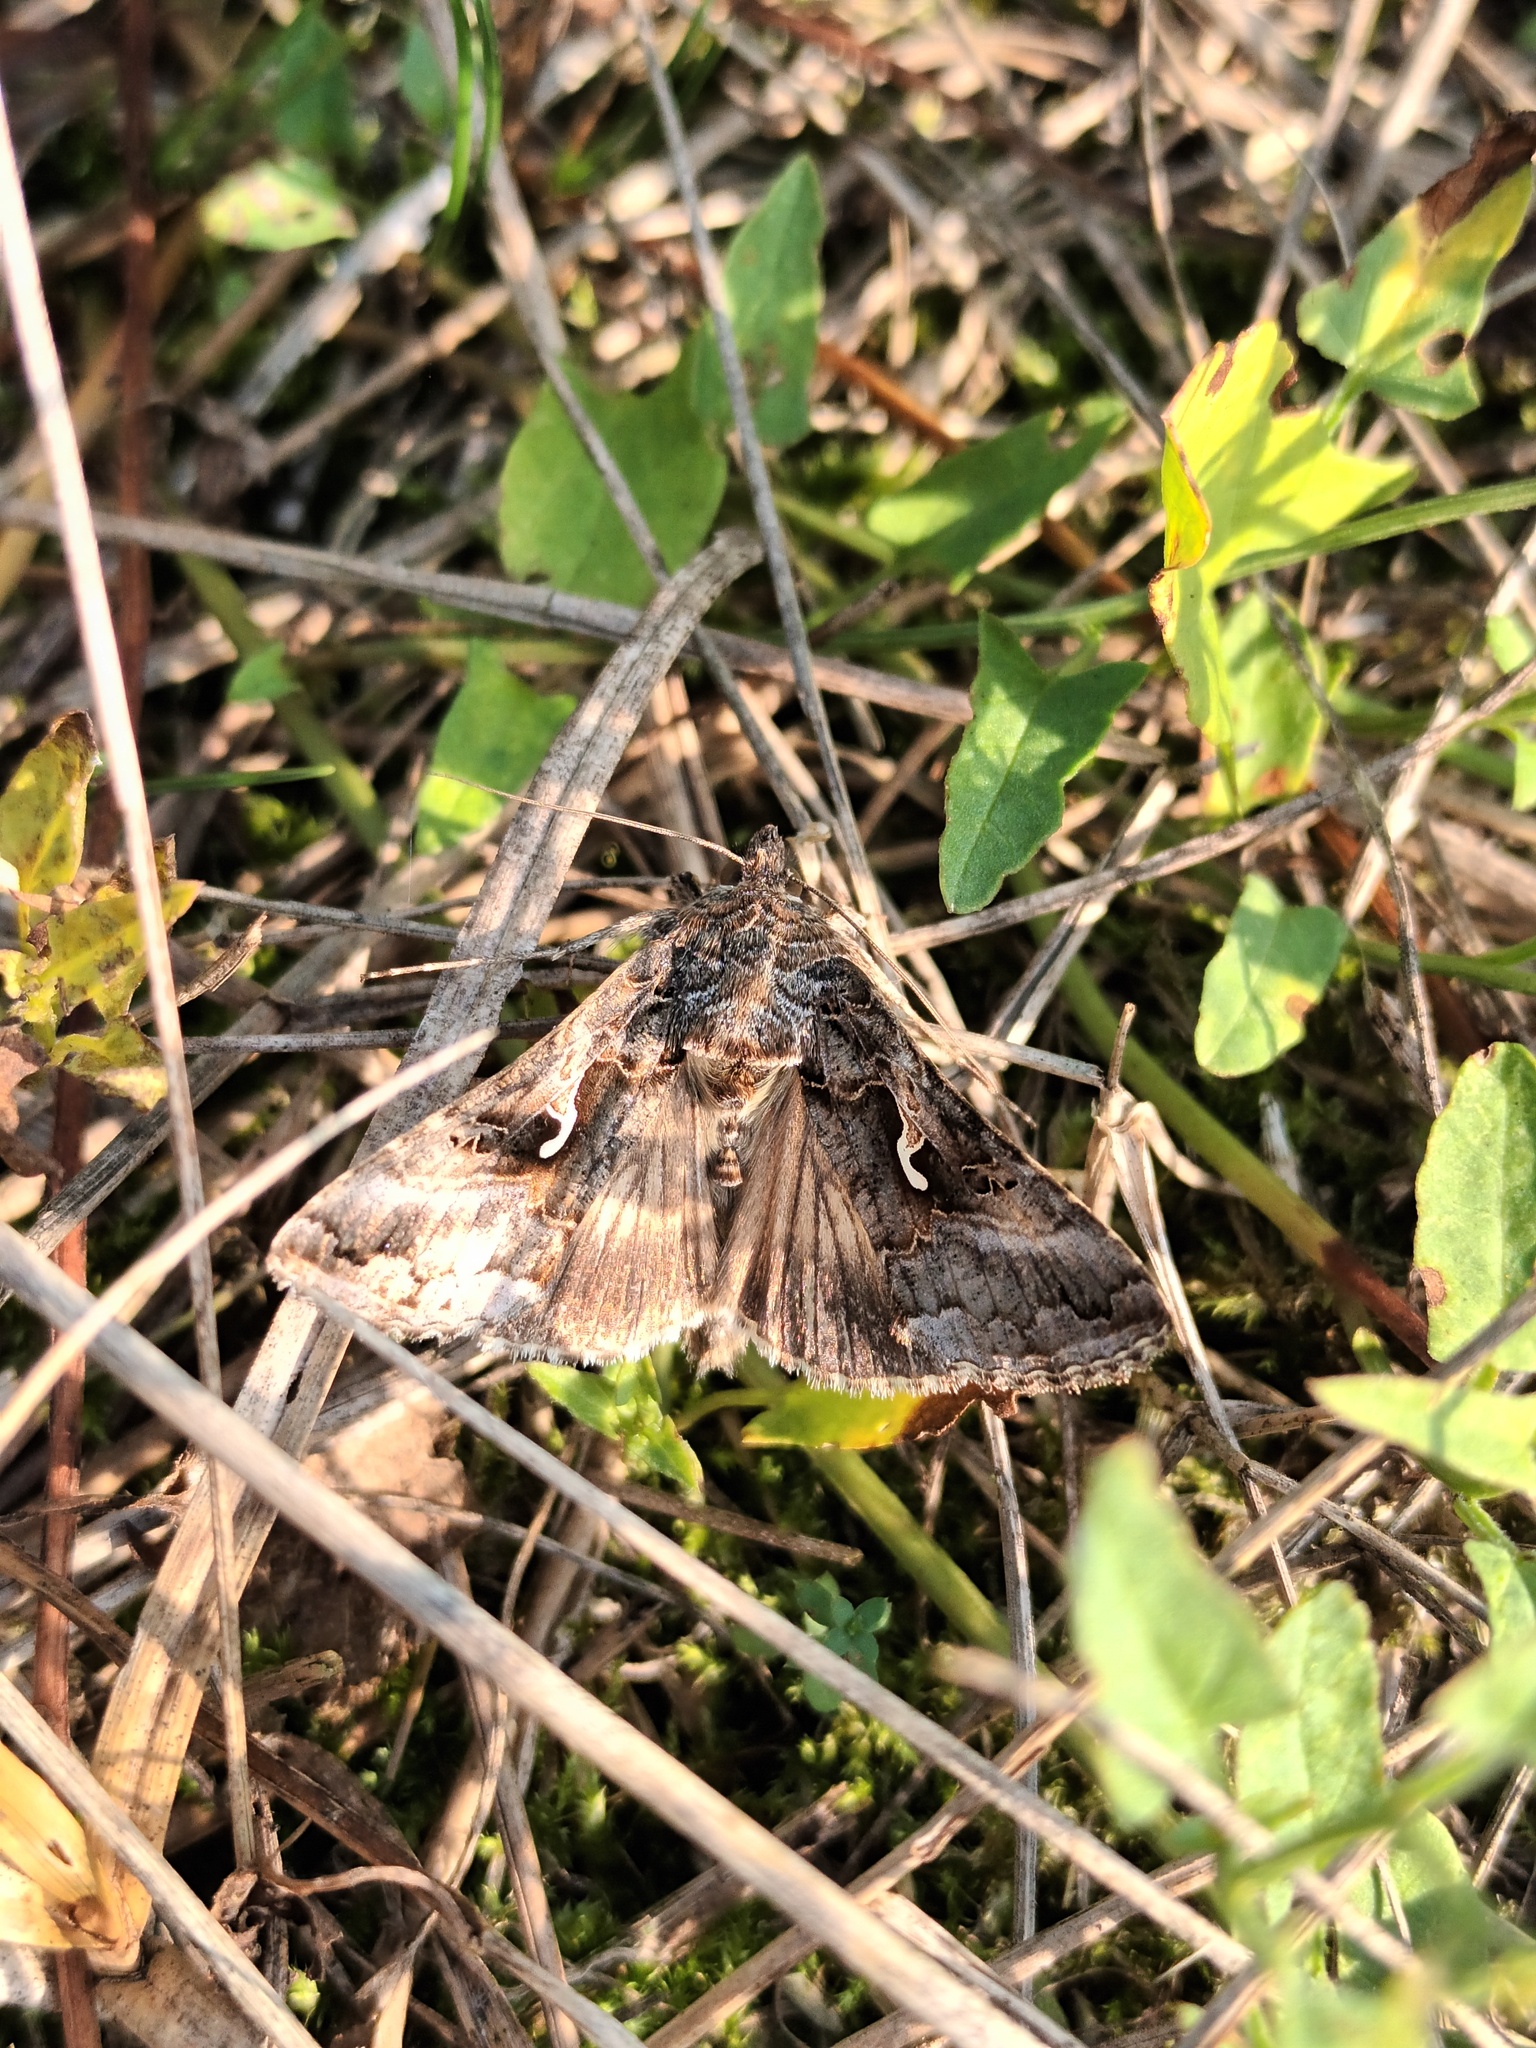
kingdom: Animalia
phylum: Arthropoda
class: Insecta
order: Lepidoptera
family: Noctuidae
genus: Autographa
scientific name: Autographa gamma
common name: Silver y
